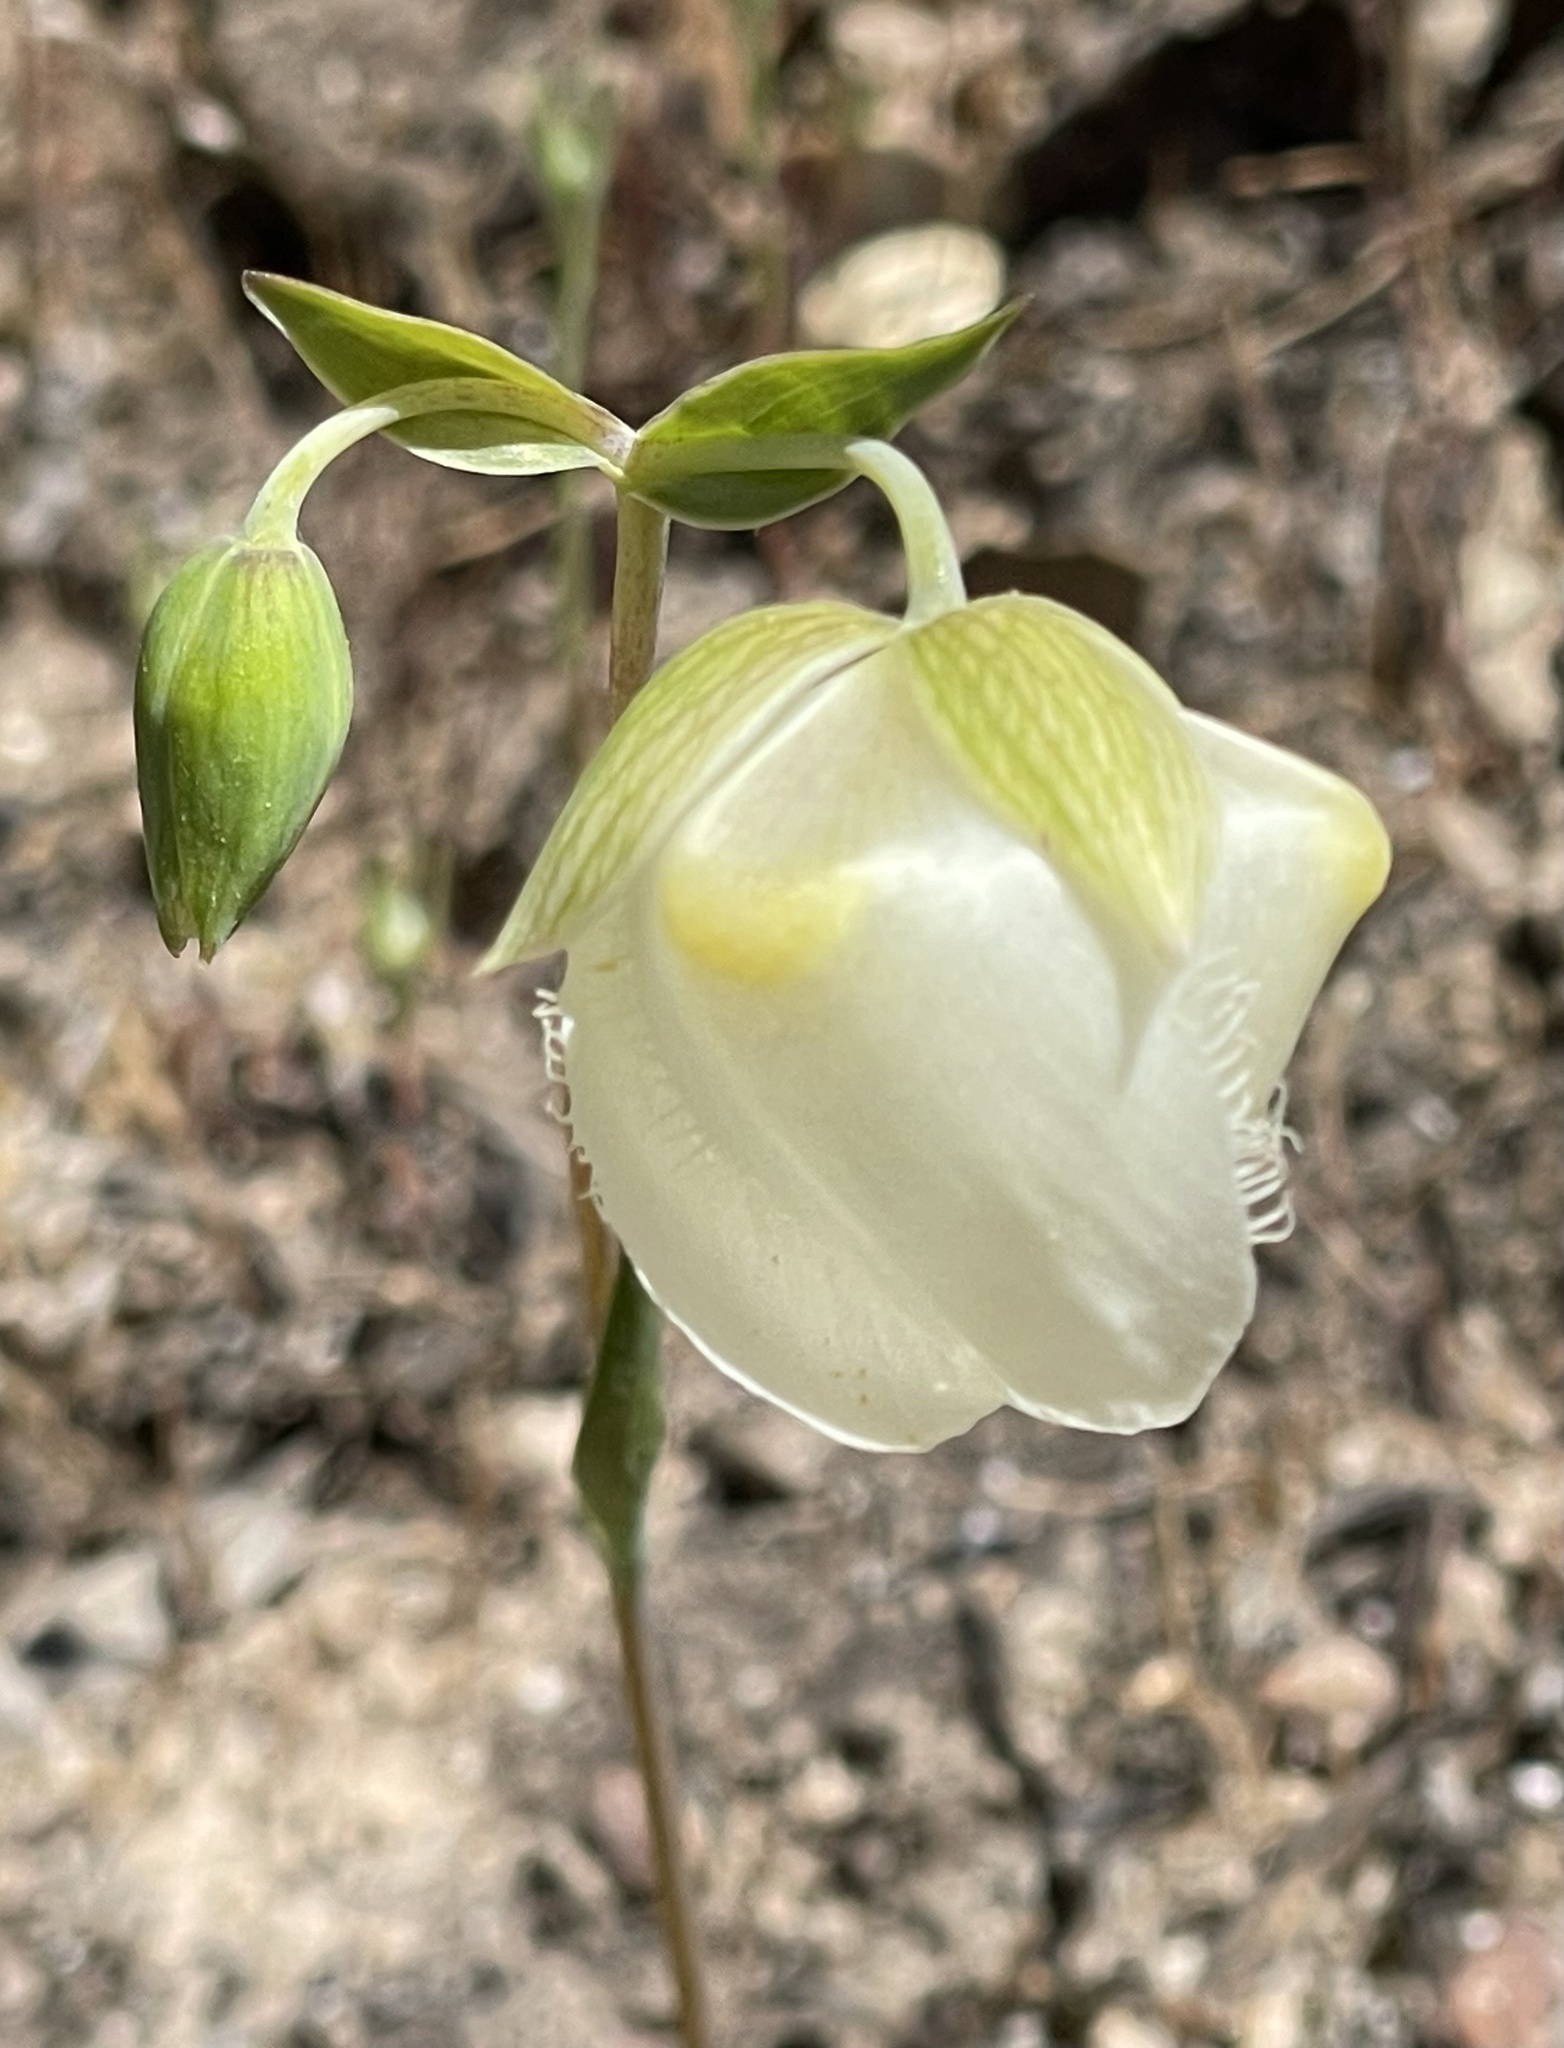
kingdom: Plantae
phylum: Tracheophyta
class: Liliopsida
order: Liliales
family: Liliaceae
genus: Calochortus
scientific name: Calochortus albus
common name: Fairy-lantern
